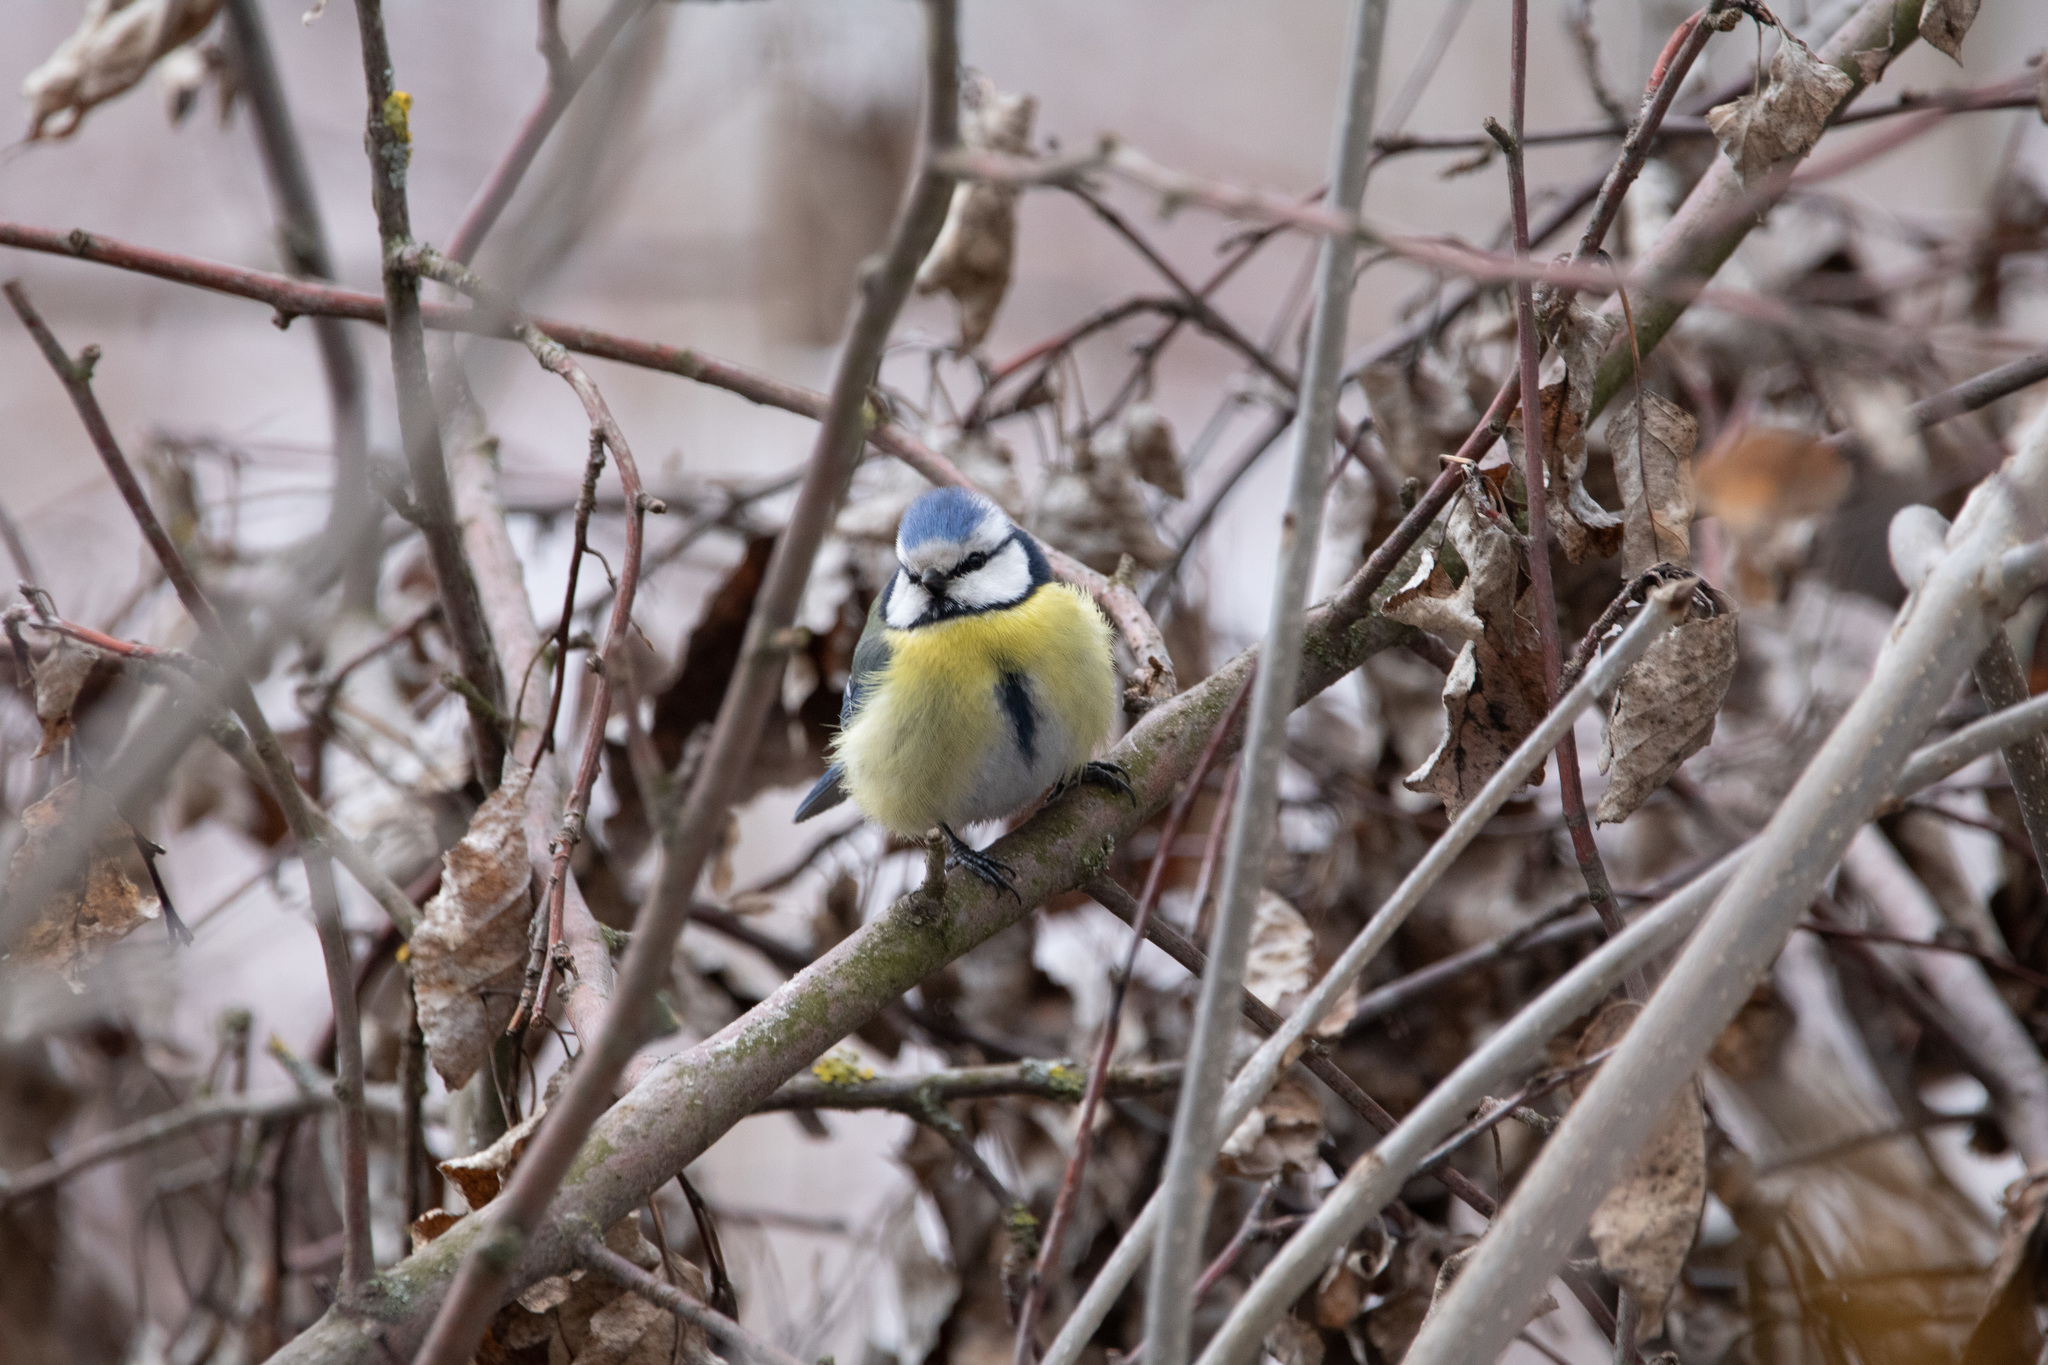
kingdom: Animalia
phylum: Chordata
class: Aves
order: Passeriformes
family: Paridae
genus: Cyanistes
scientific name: Cyanistes caeruleus
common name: Eurasian blue tit
